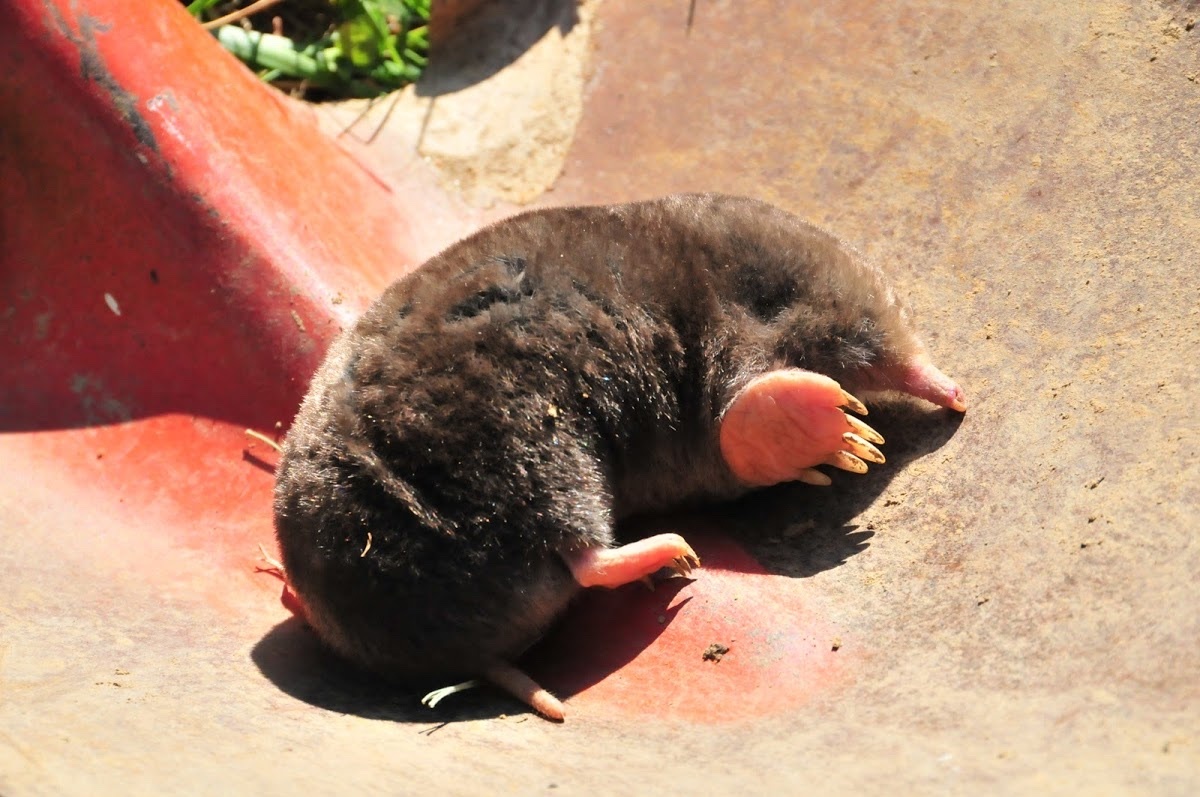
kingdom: Animalia
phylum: Chordata
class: Mammalia
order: Soricomorpha
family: Talpidae
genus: Scalopus
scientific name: Scalopus aquaticus
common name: Eastern mole
